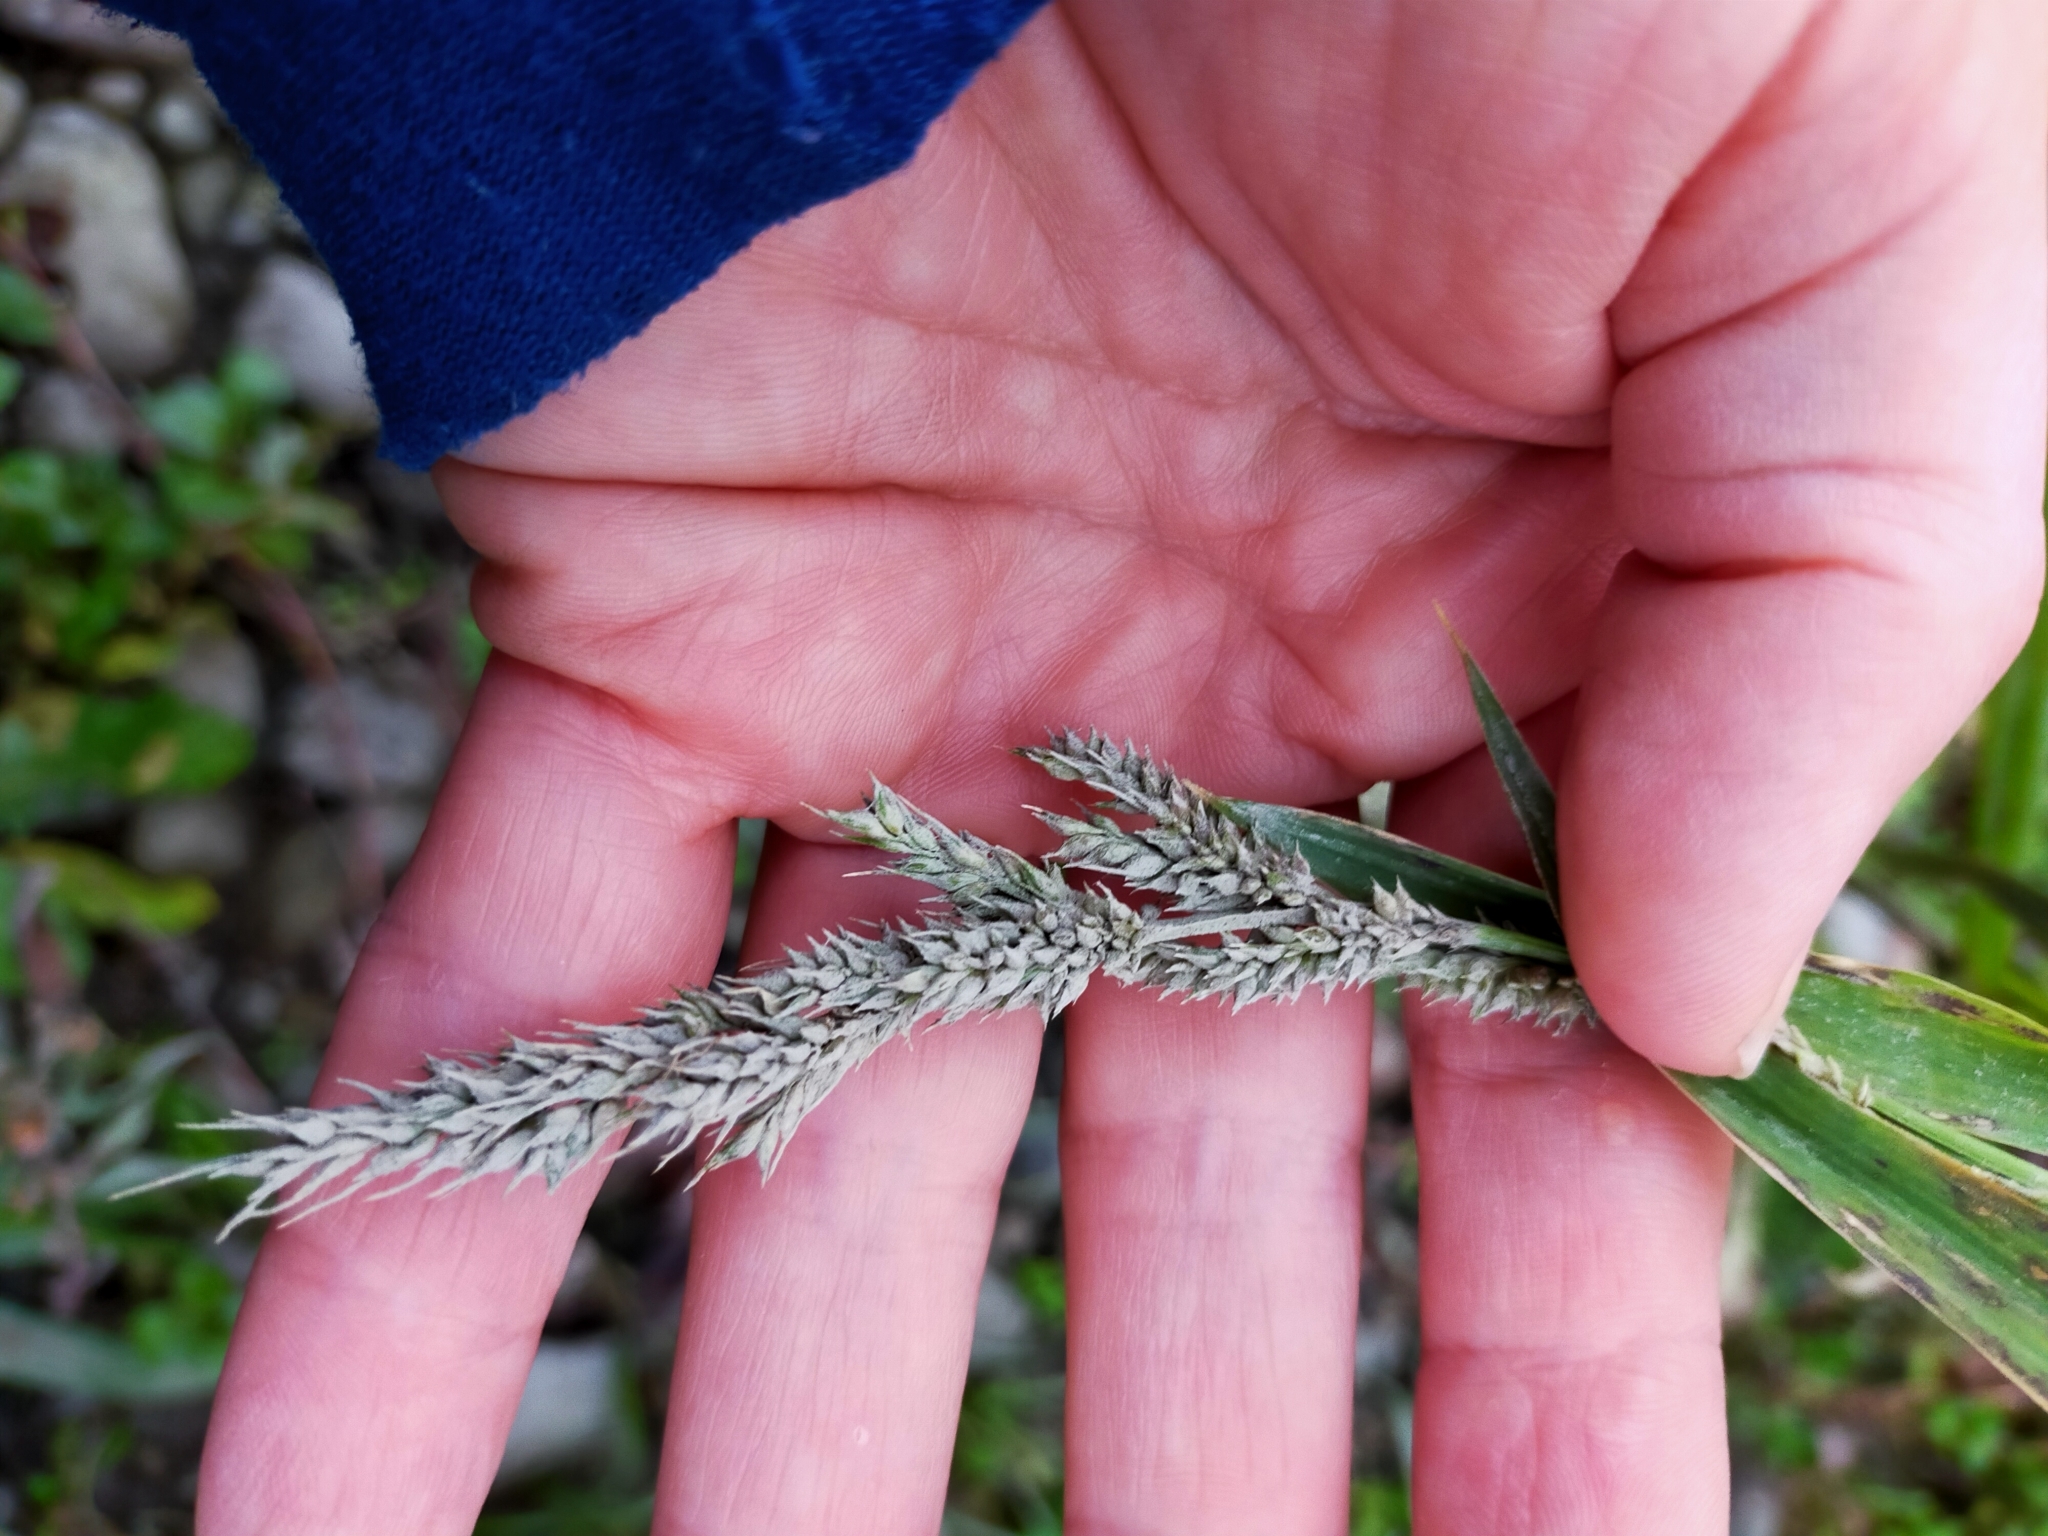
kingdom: Plantae
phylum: Tracheophyta
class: Liliopsida
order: Poales
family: Poaceae
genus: Echinochloa
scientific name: Echinochloa crus-galli
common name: Cockspur
